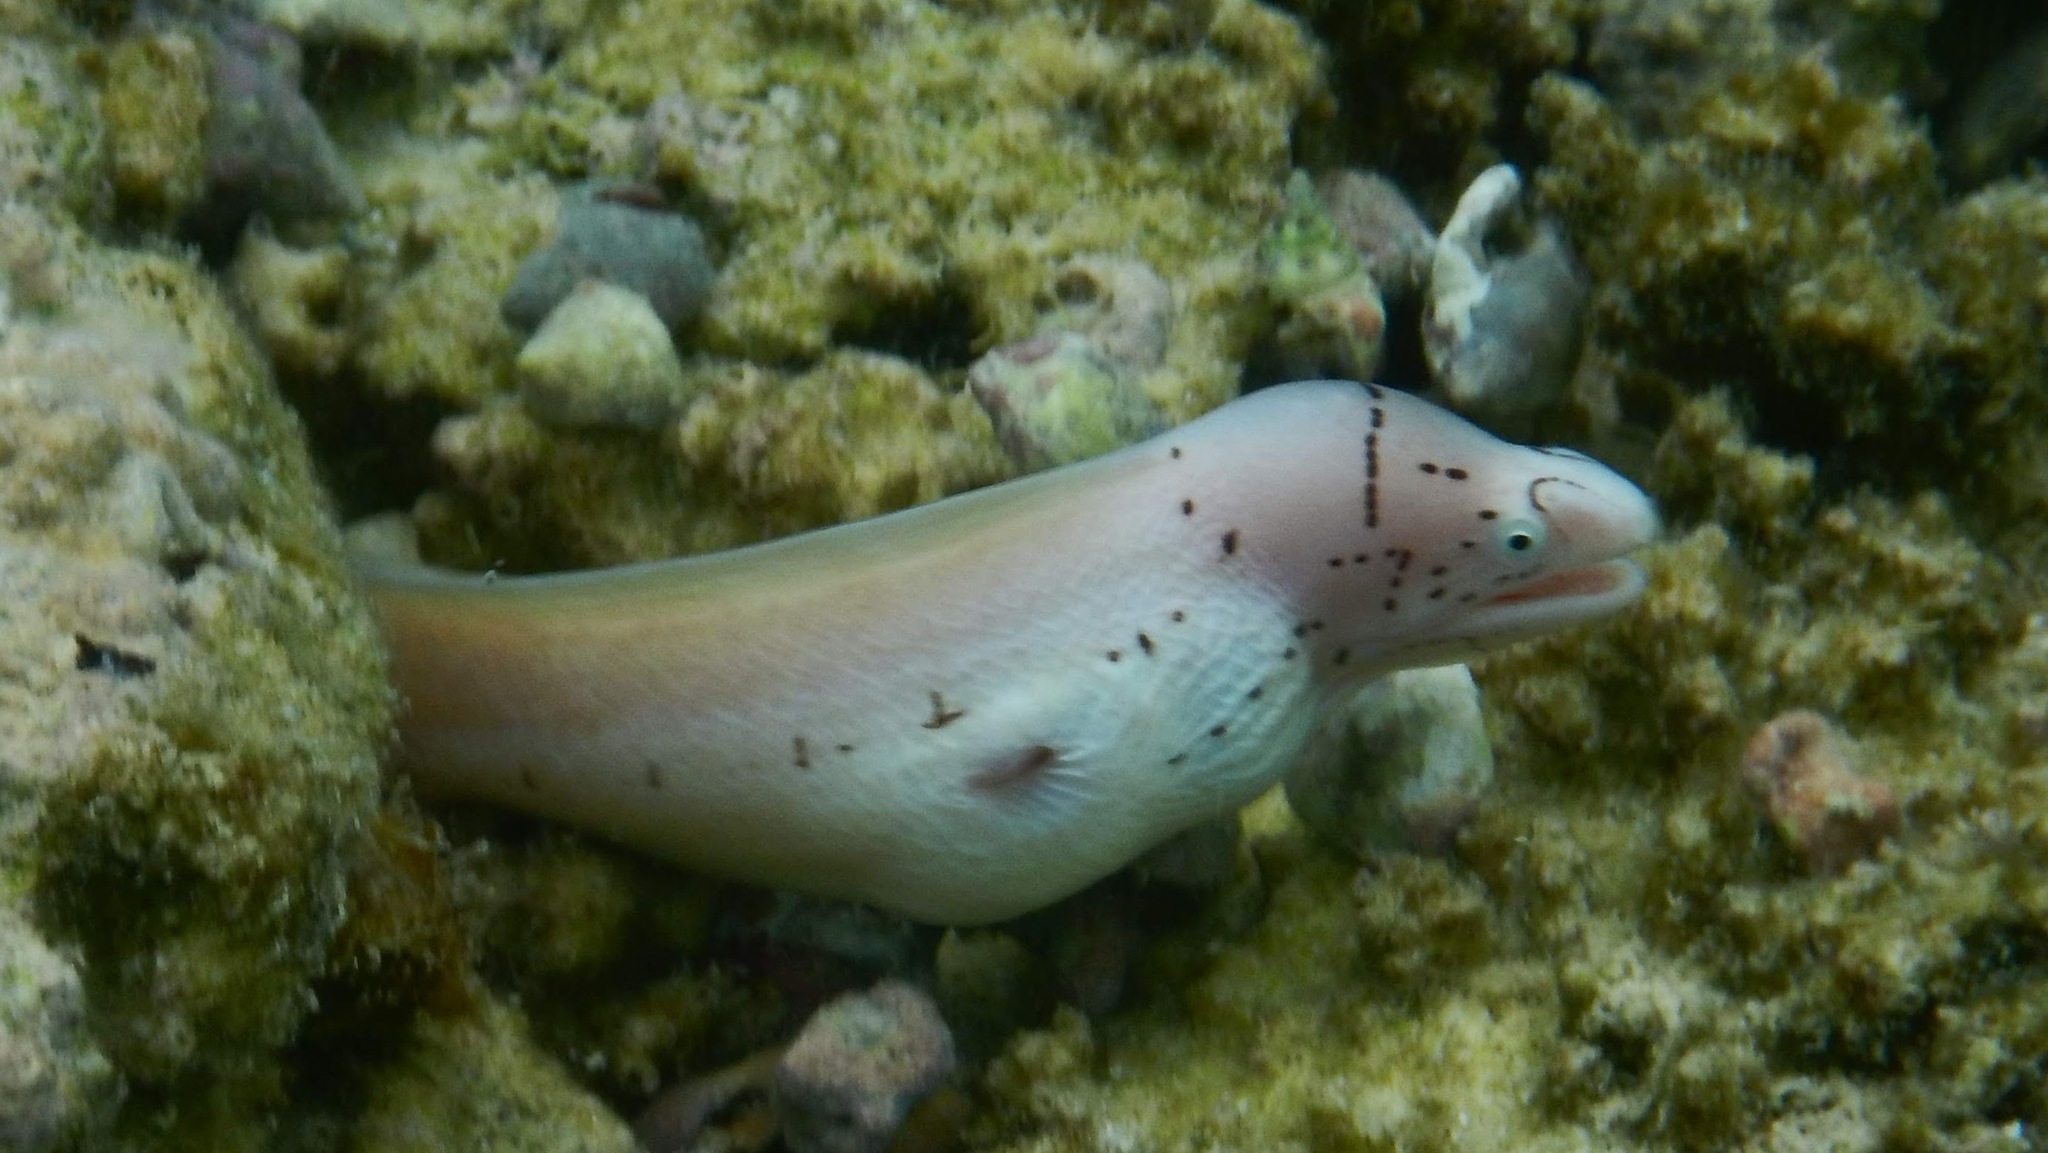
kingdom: Animalia
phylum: Chordata
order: Anguilliformes
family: Muraenidae
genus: Gymnothorax
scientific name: Gymnothorax griseus
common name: Geometric moray
